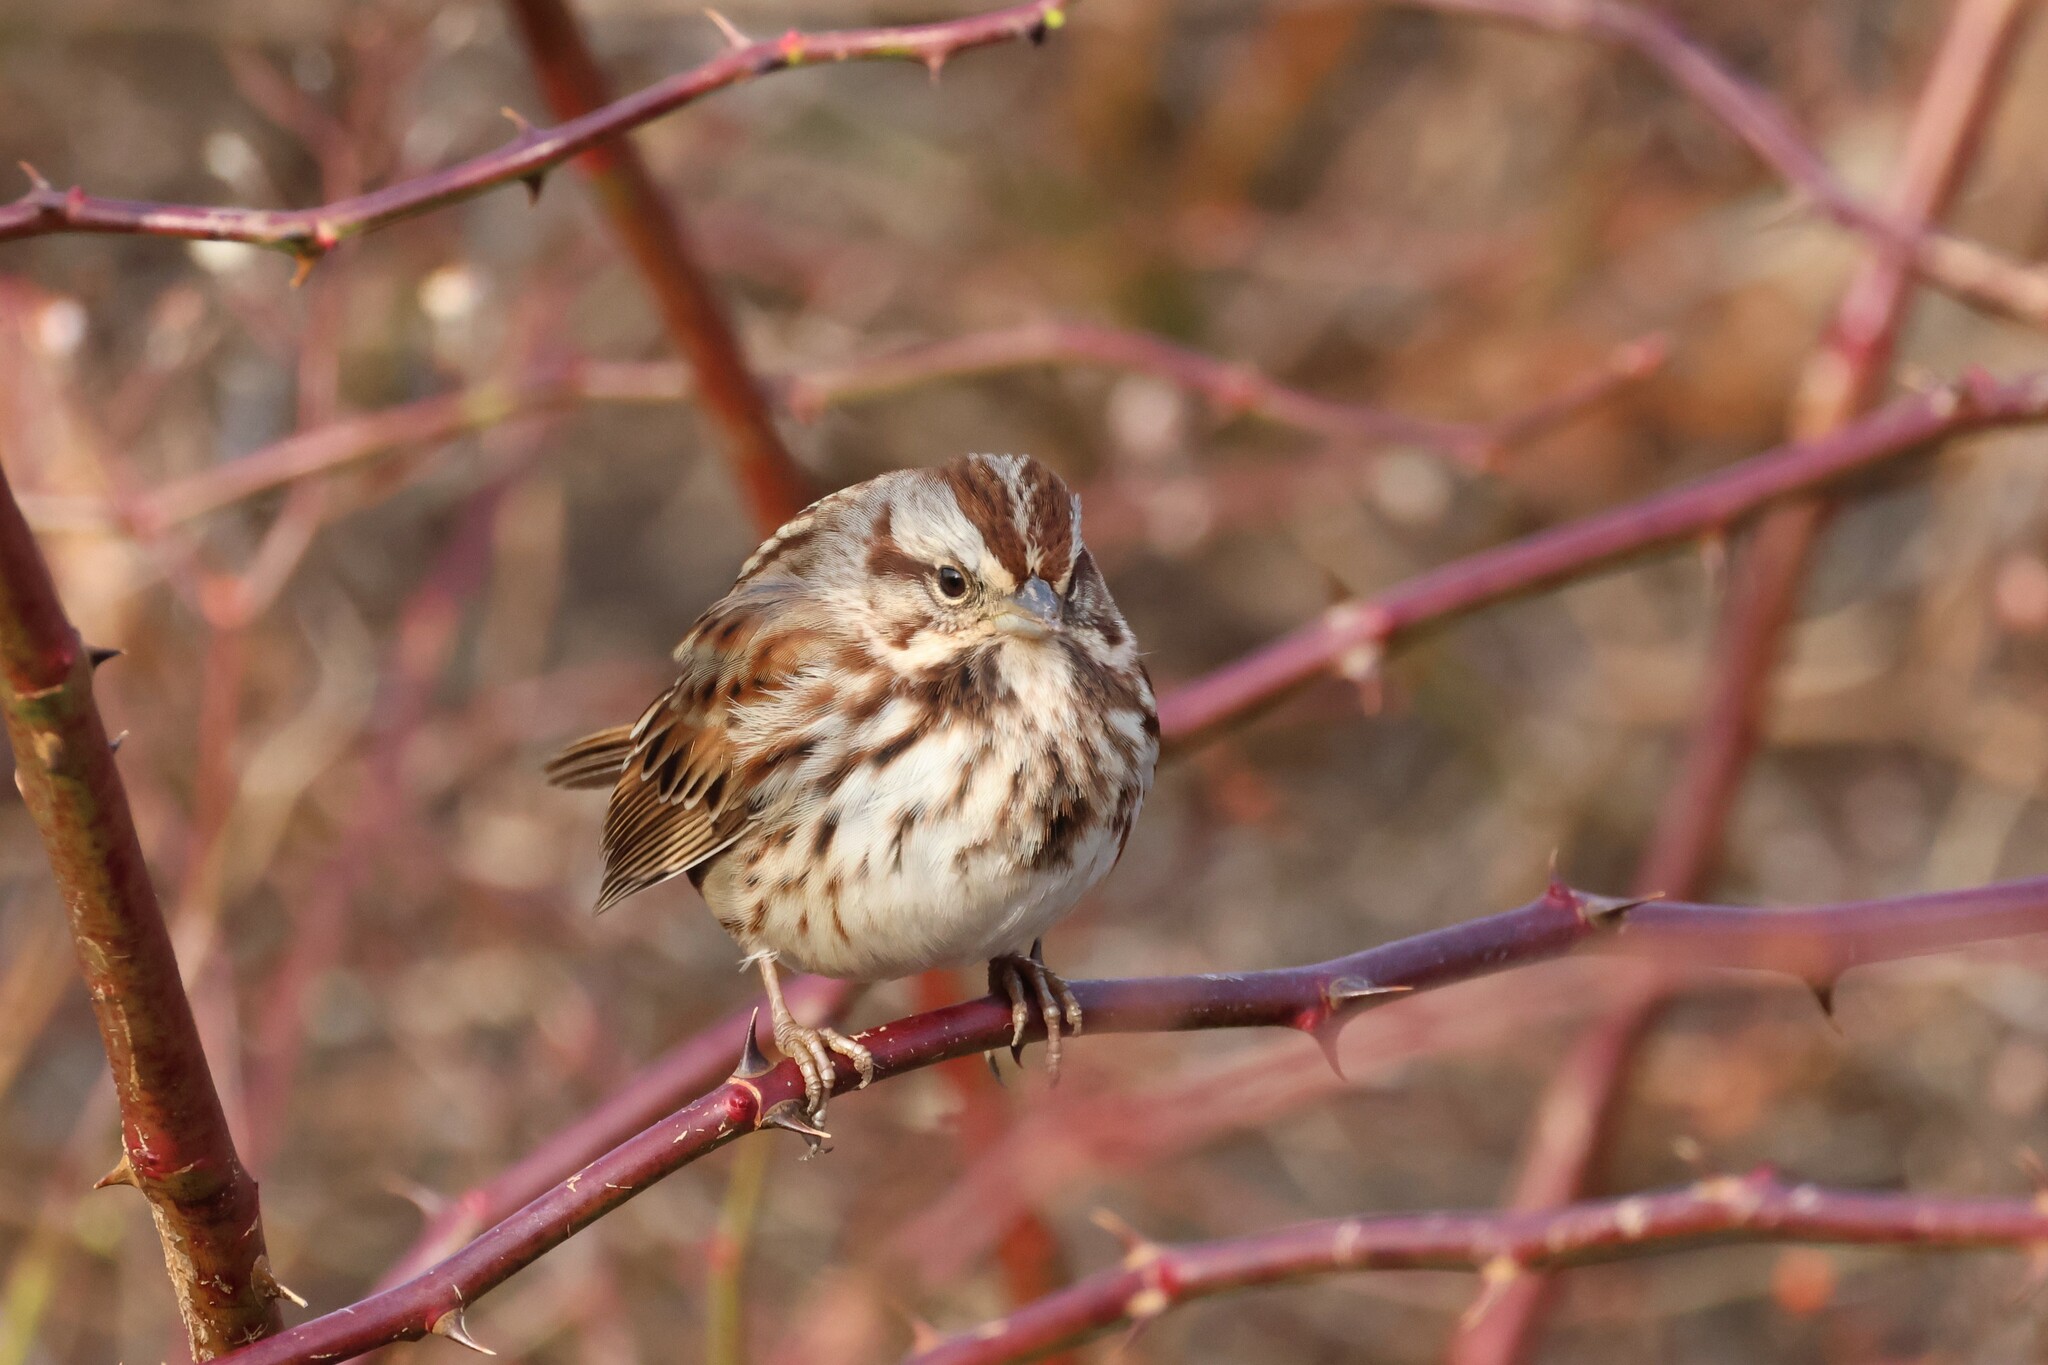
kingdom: Animalia
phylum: Chordata
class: Aves
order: Passeriformes
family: Passerellidae
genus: Melospiza
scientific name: Melospiza melodia
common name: Song sparrow
